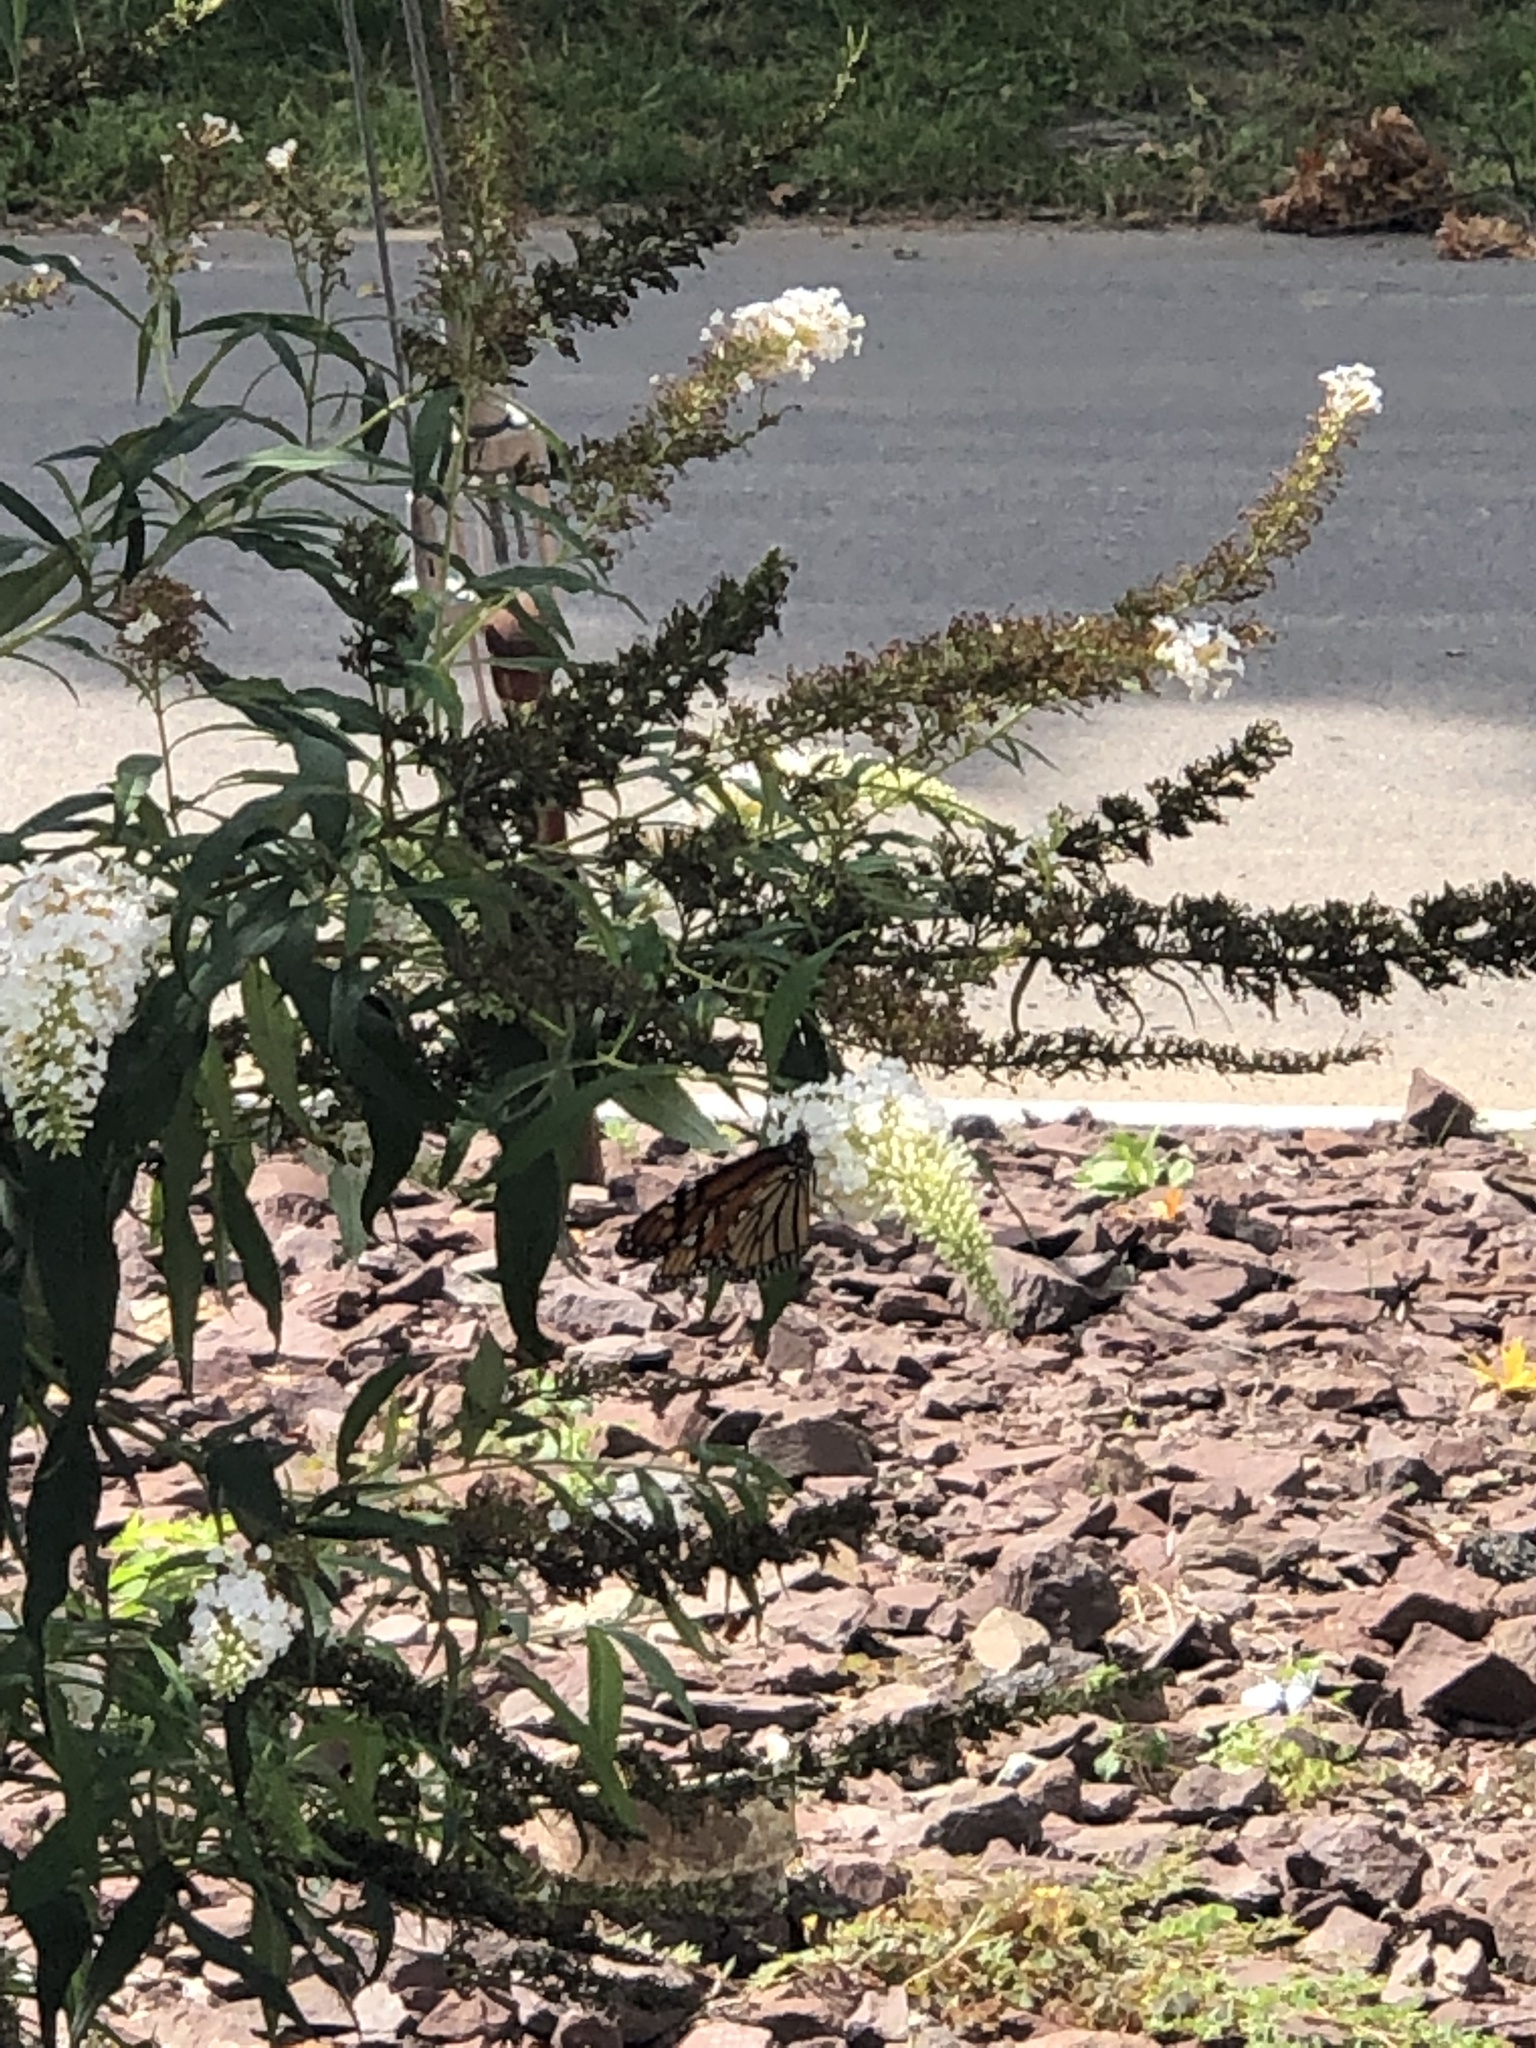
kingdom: Animalia
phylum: Arthropoda
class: Insecta
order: Lepidoptera
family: Nymphalidae
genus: Danaus
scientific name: Danaus plexippus
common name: Monarch
